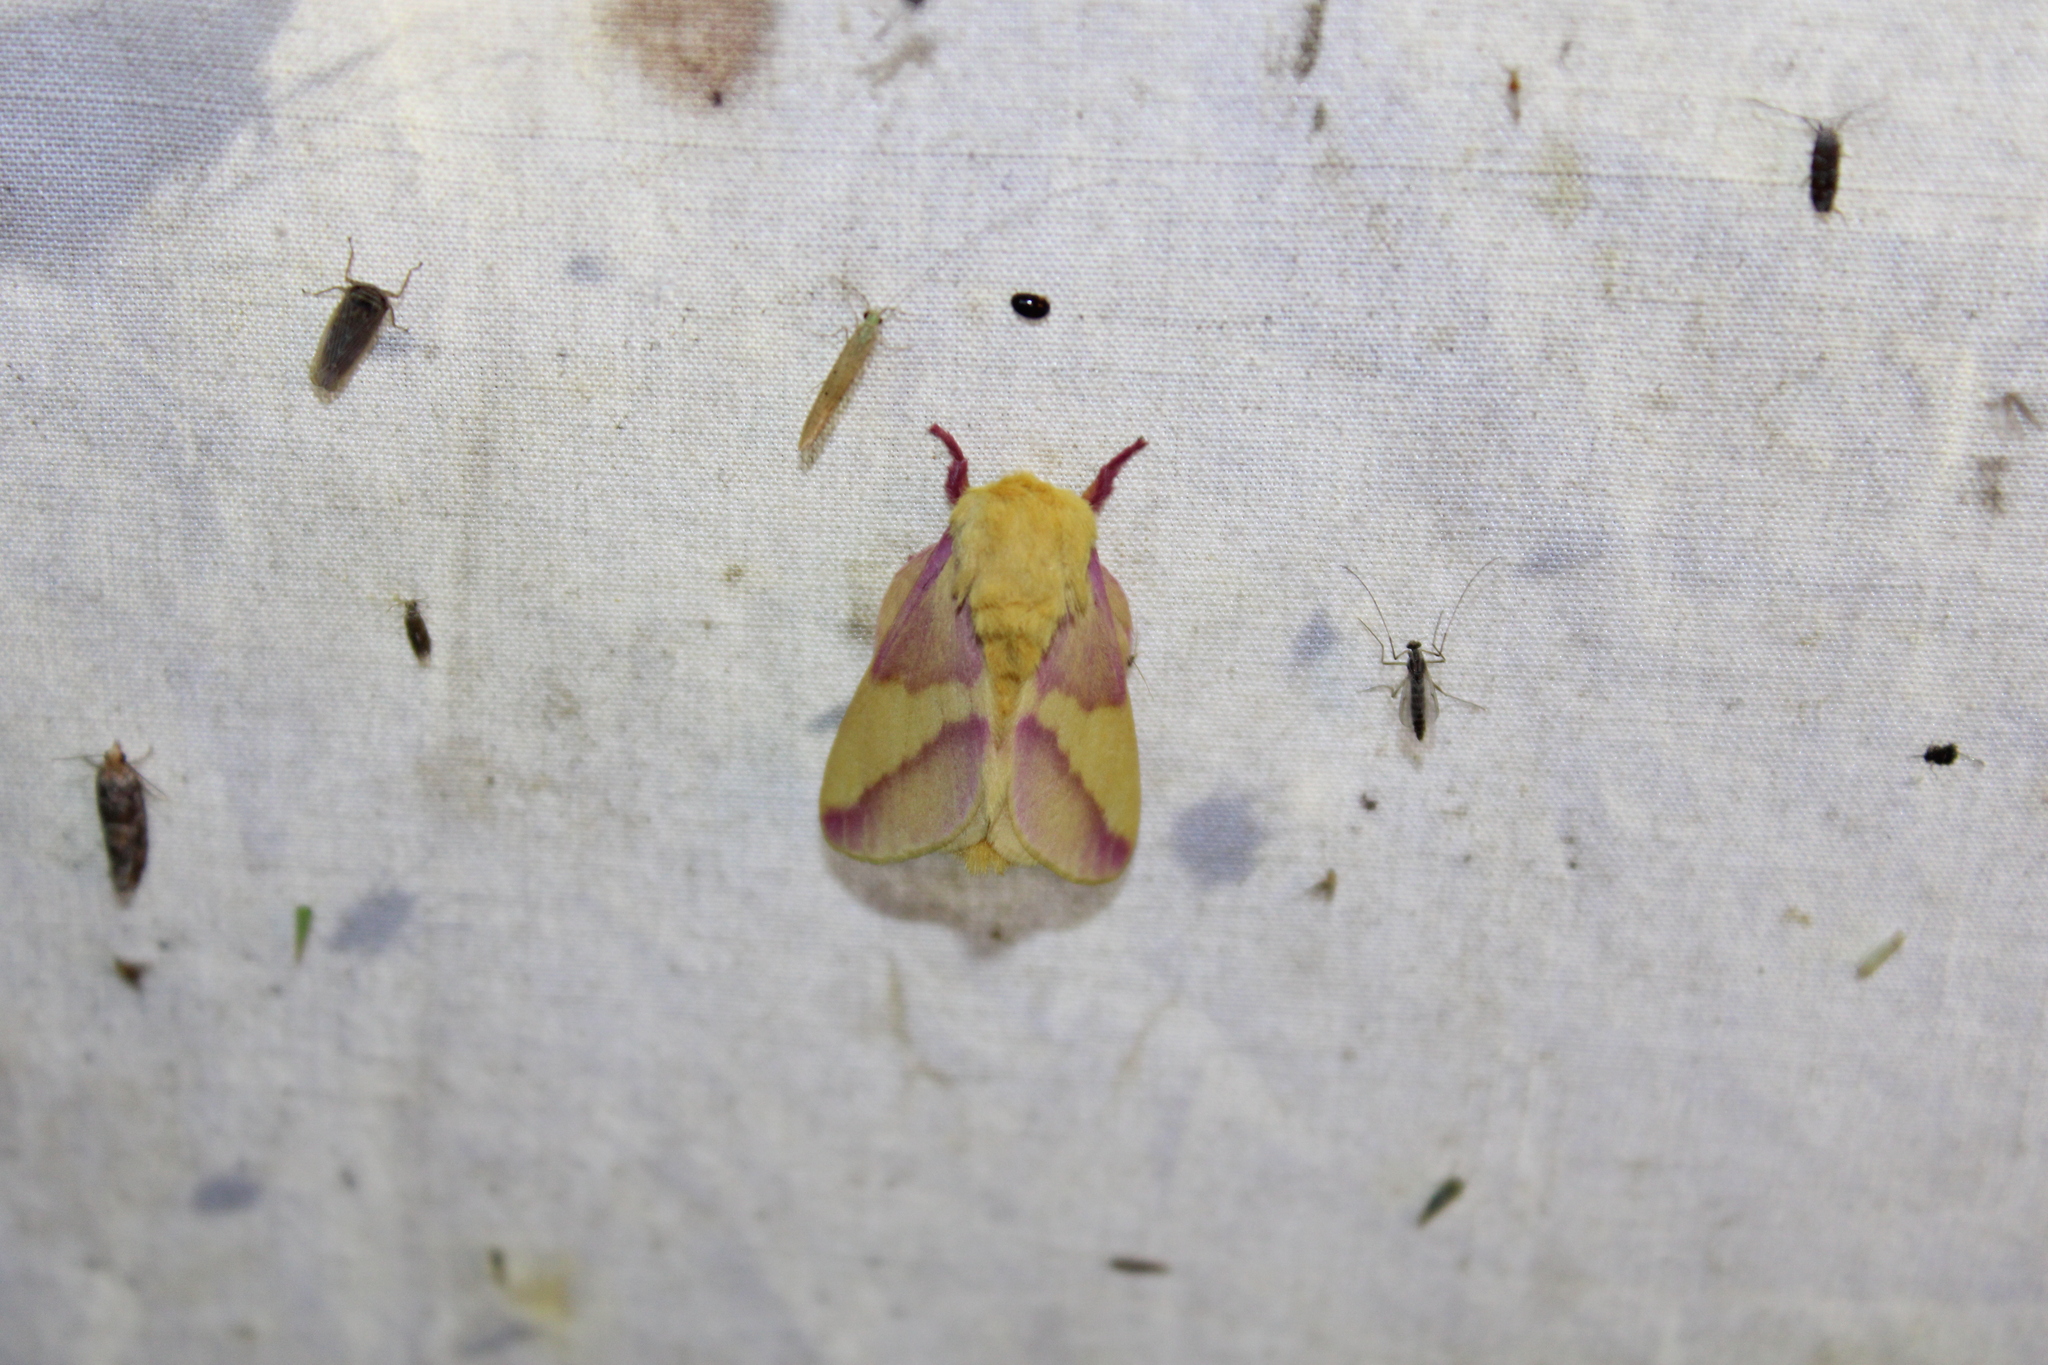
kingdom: Animalia
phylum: Arthropoda
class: Insecta
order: Lepidoptera
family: Saturniidae
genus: Dryocampa
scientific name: Dryocampa rubicunda
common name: Rosy maple moth
